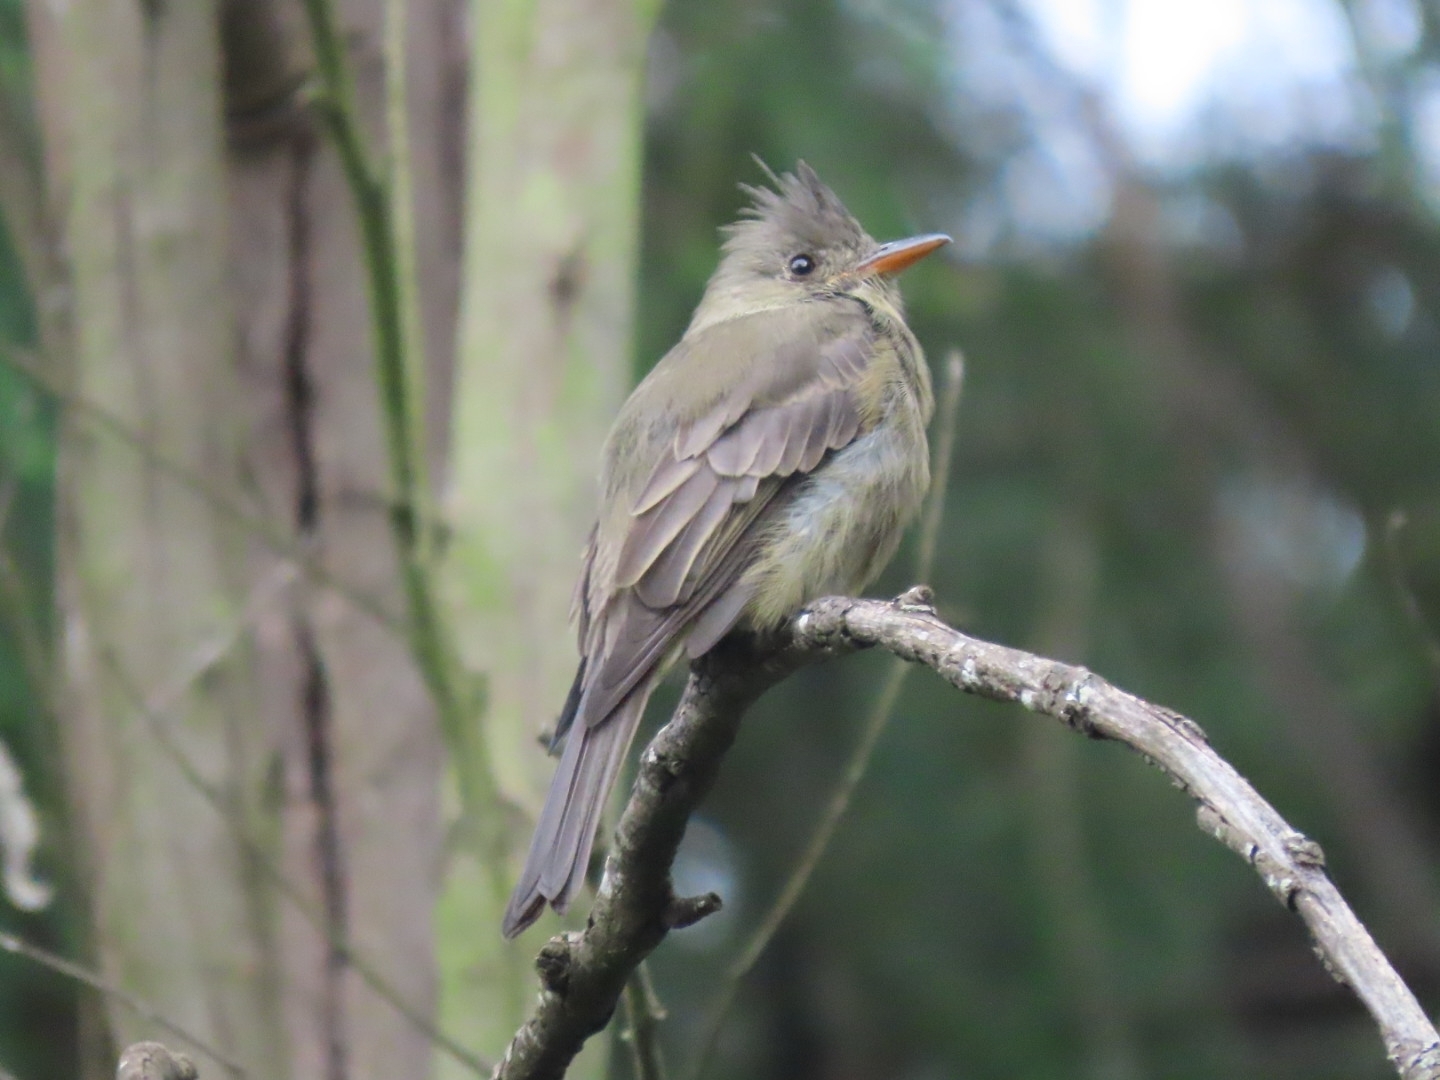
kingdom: Animalia
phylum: Chordata
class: Aves
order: Passeriformes
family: Tyrannidae
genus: Contopus
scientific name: Contopus pertinax
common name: Greater pewee
